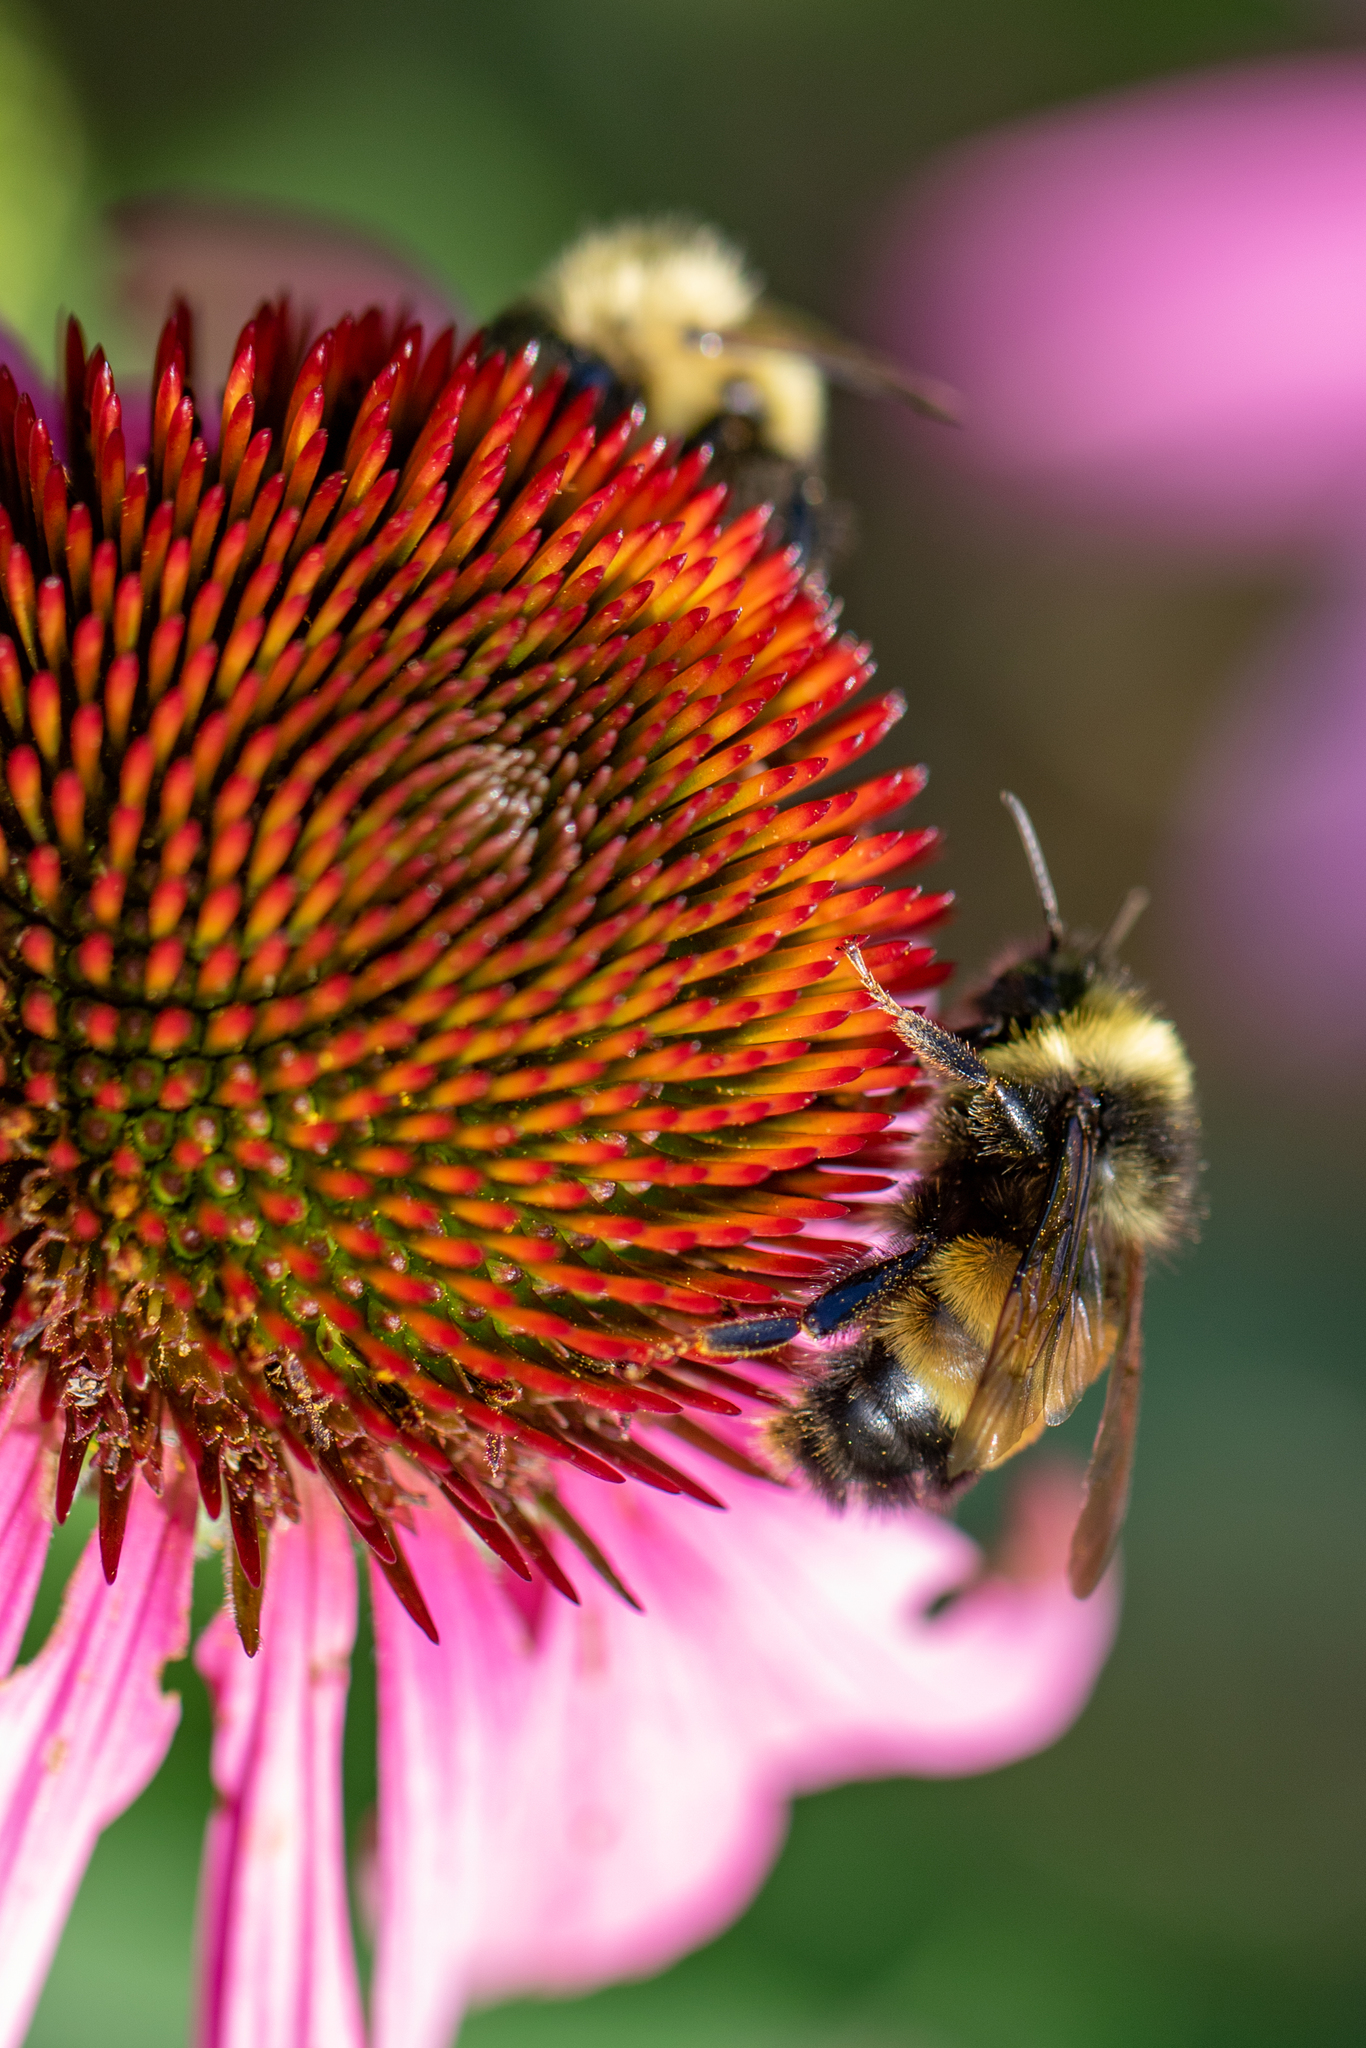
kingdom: Animalia
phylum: Arthropoda
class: Insecta
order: Hymenoptera
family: Apidae
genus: Bombus
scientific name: Bombus terricola
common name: Yellow-banded bumble bee
